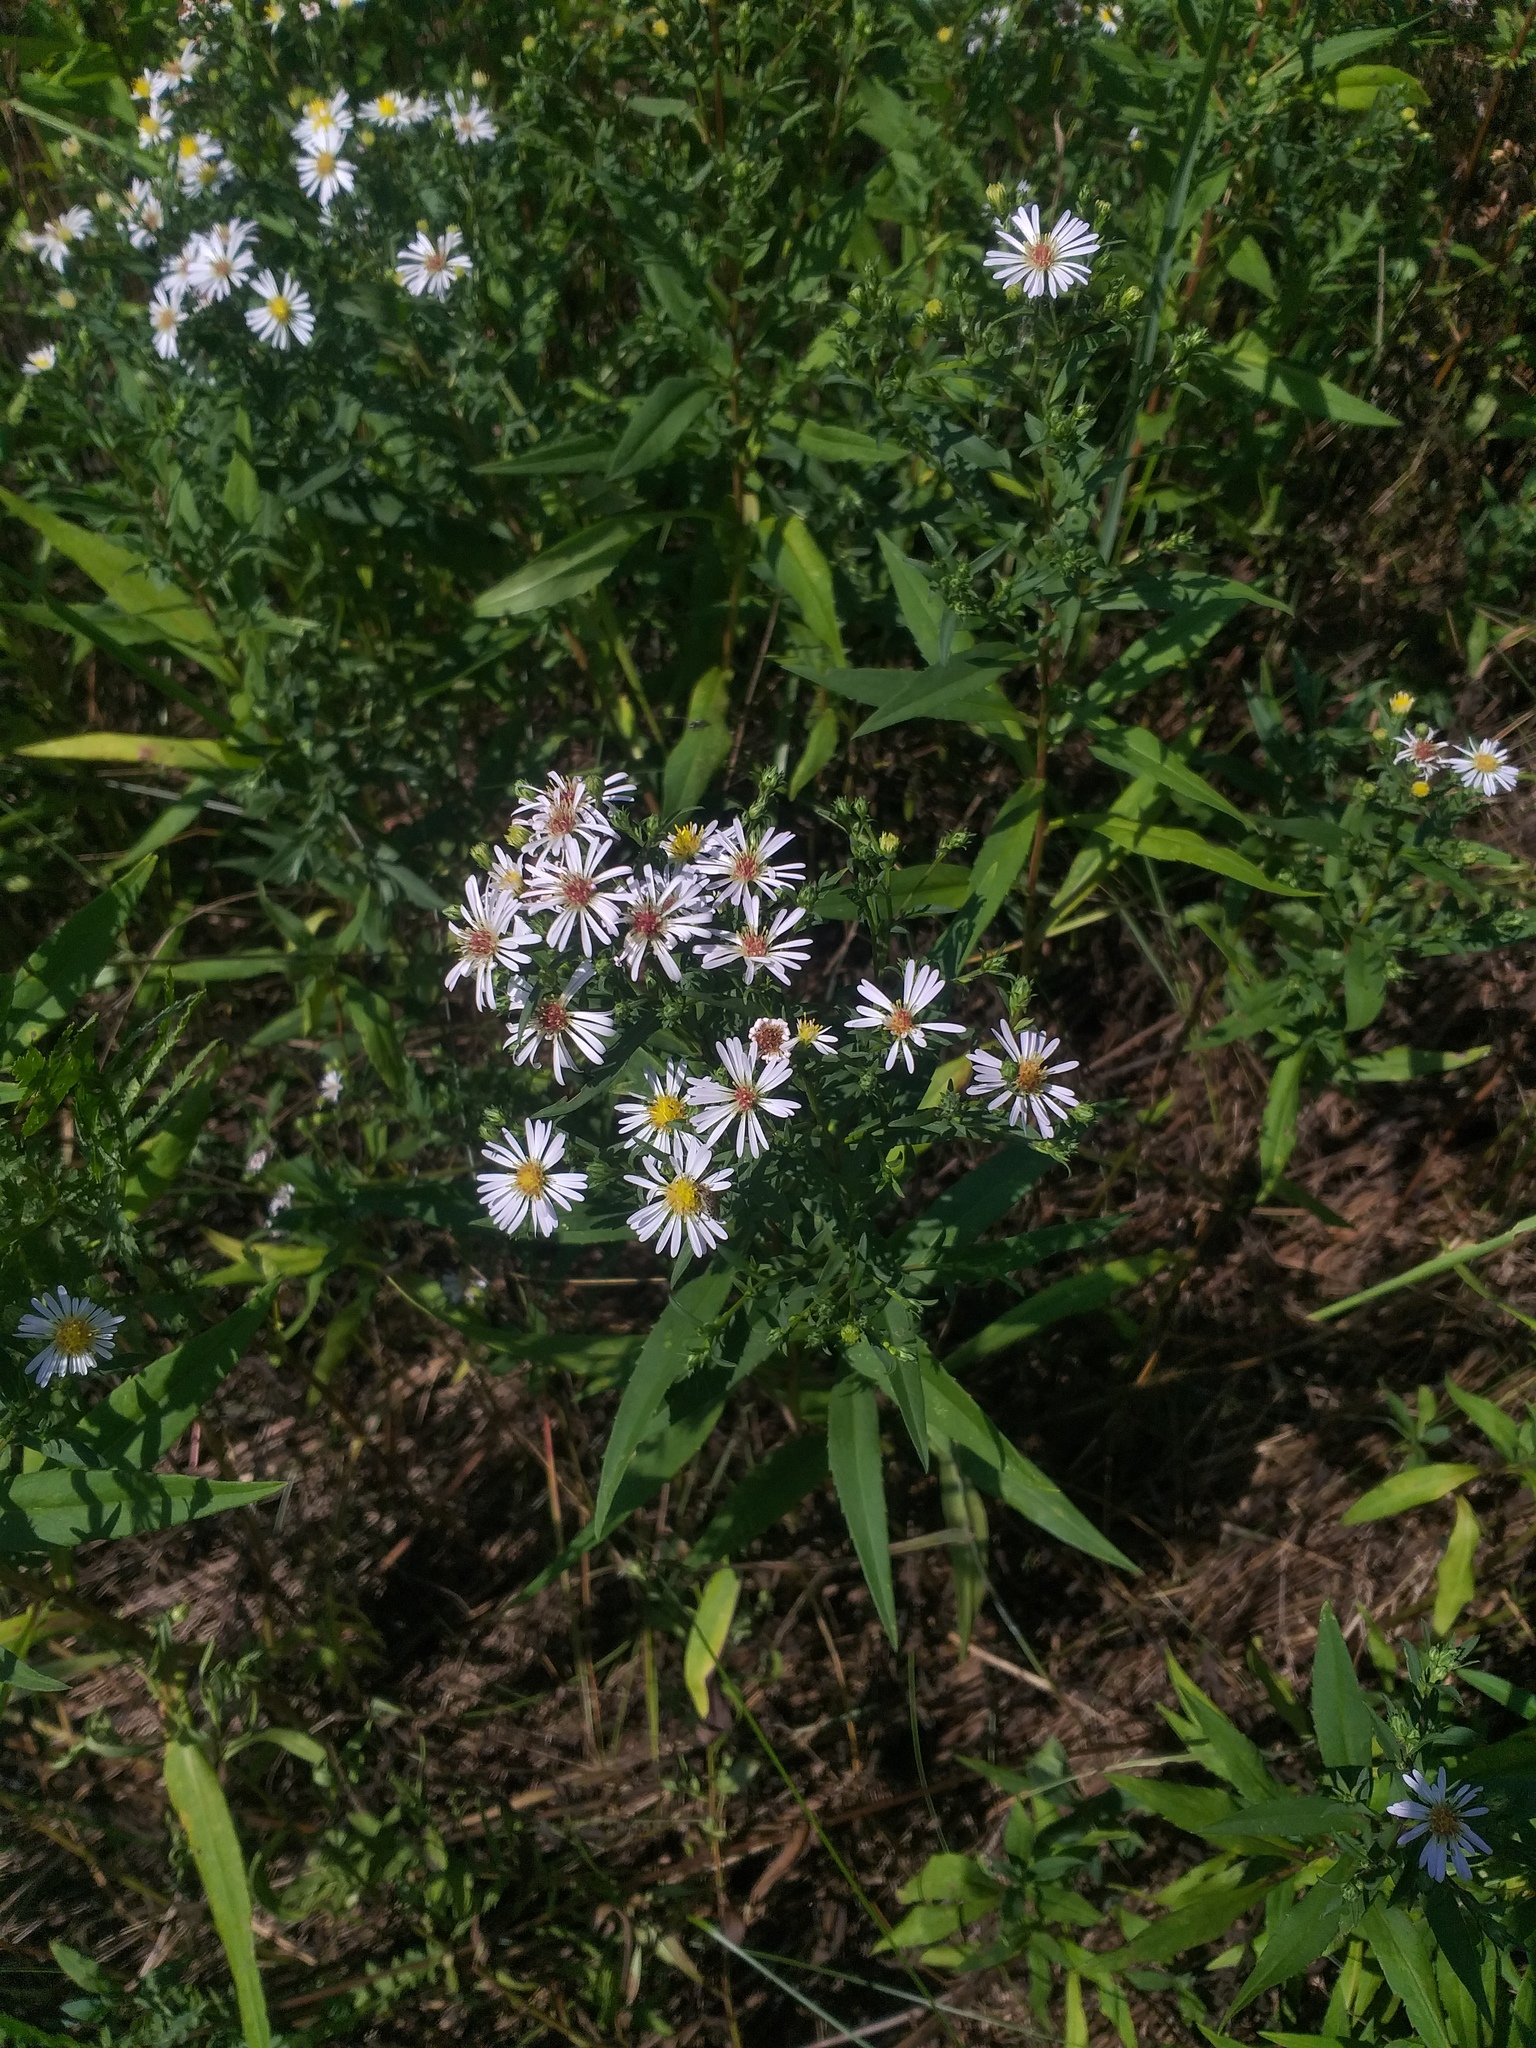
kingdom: Plantae
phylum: Tracheophyta
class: Magnoliopsida
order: Asterales
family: Asteraceae
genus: Symphyotrichum
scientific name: Symphyotrichum salignum
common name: Common michaelmas daisy
